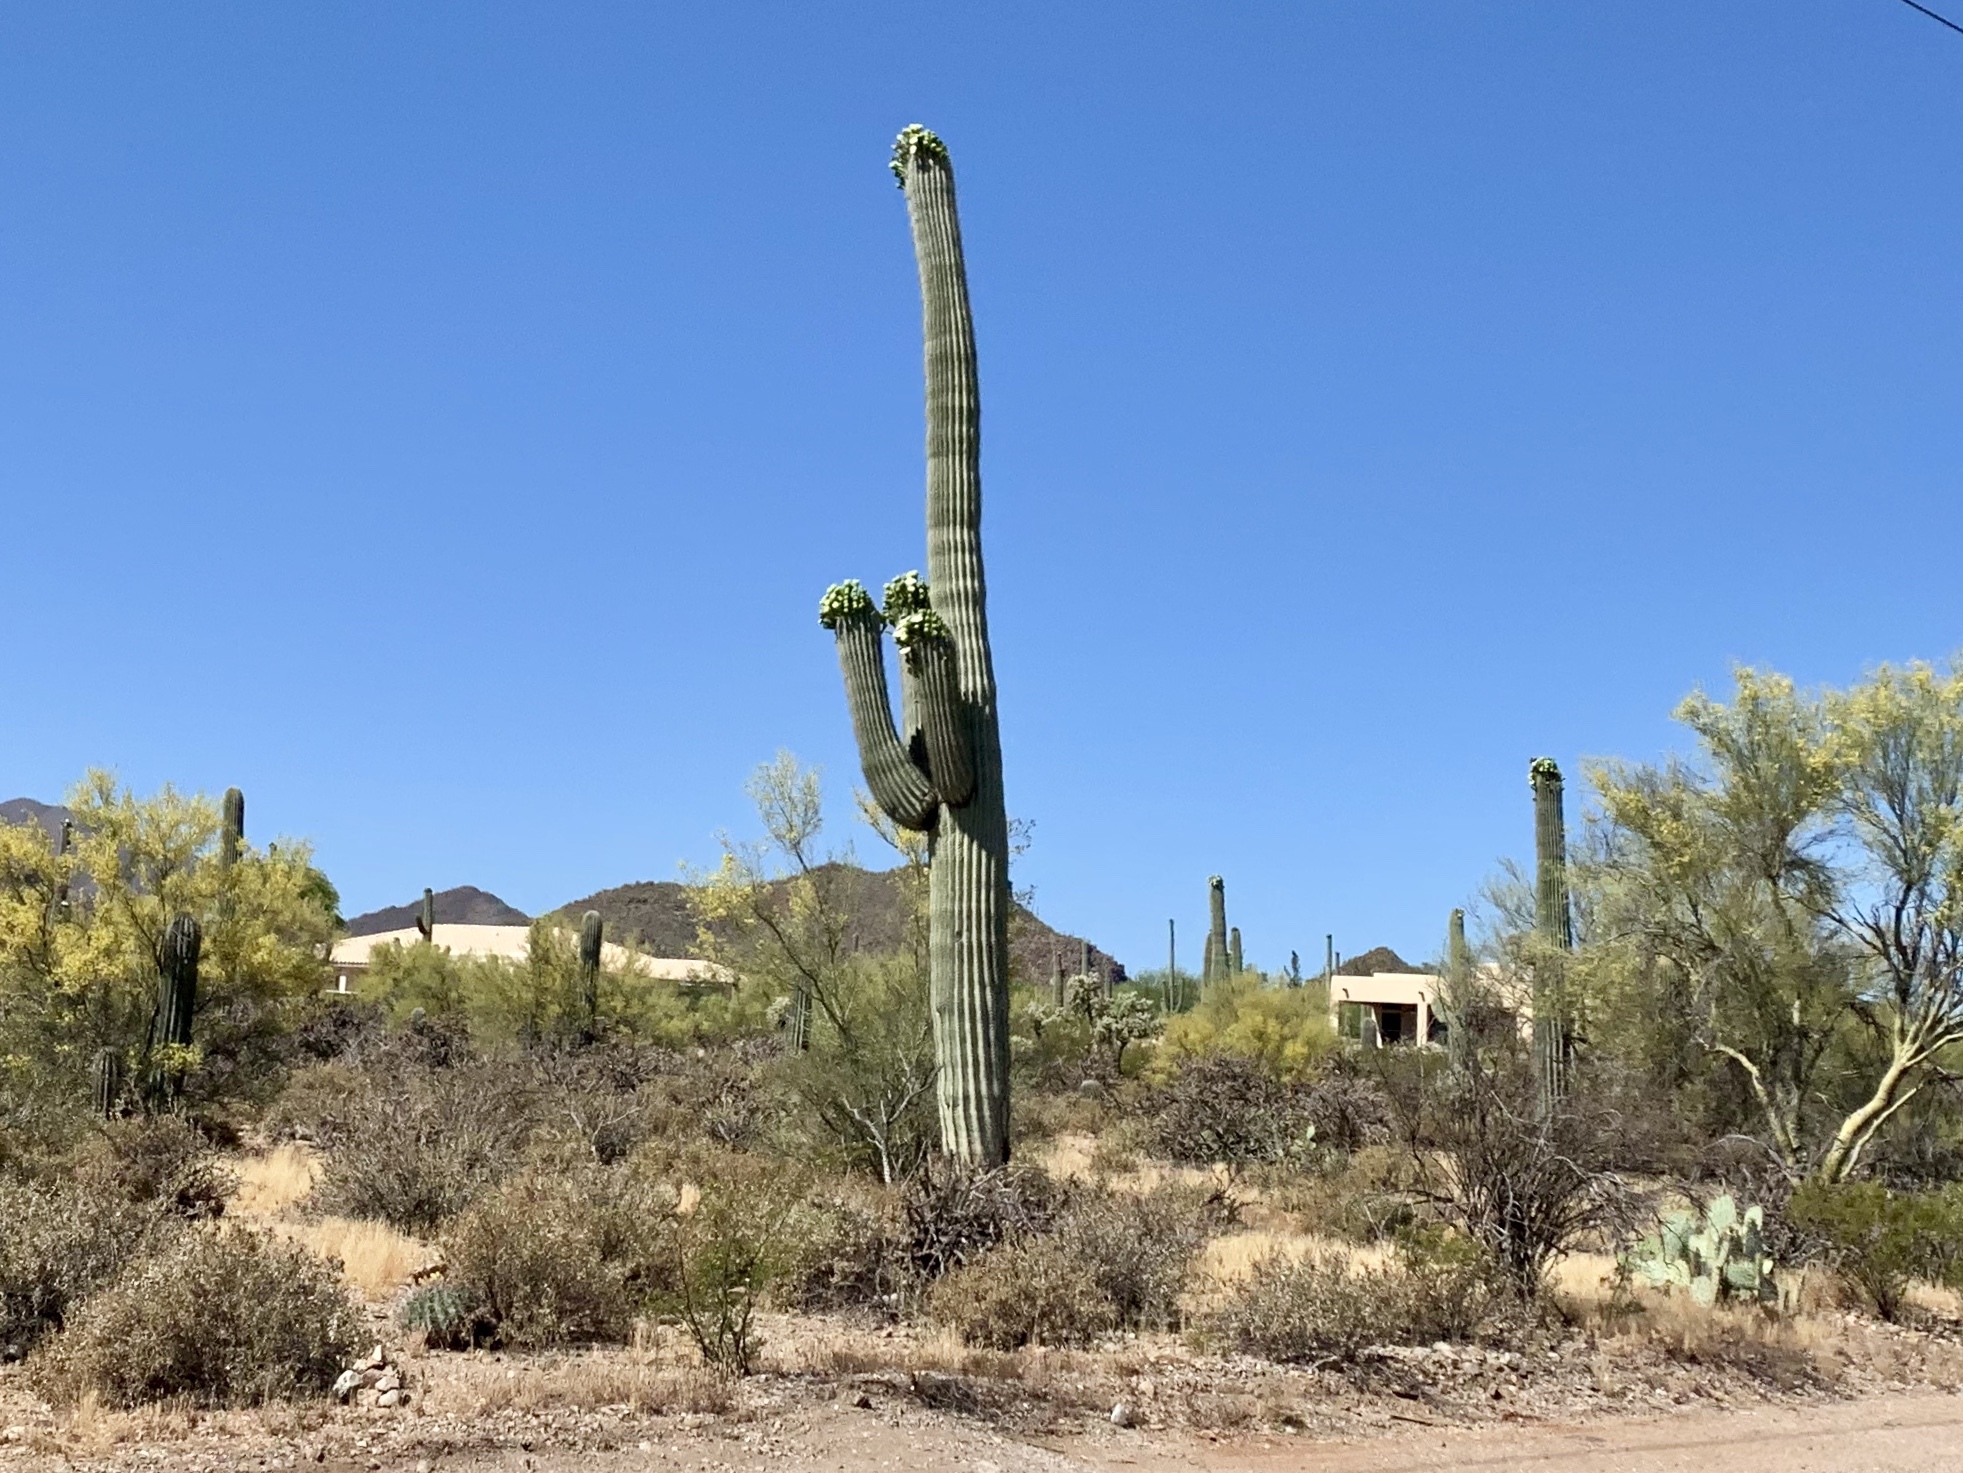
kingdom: Plantae
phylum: Tracheophyta
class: Magnoliopsida
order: Caryophyllales
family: Cactaceae
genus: Carnegiea
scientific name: Carnegiea gigantea
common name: Saguaro
